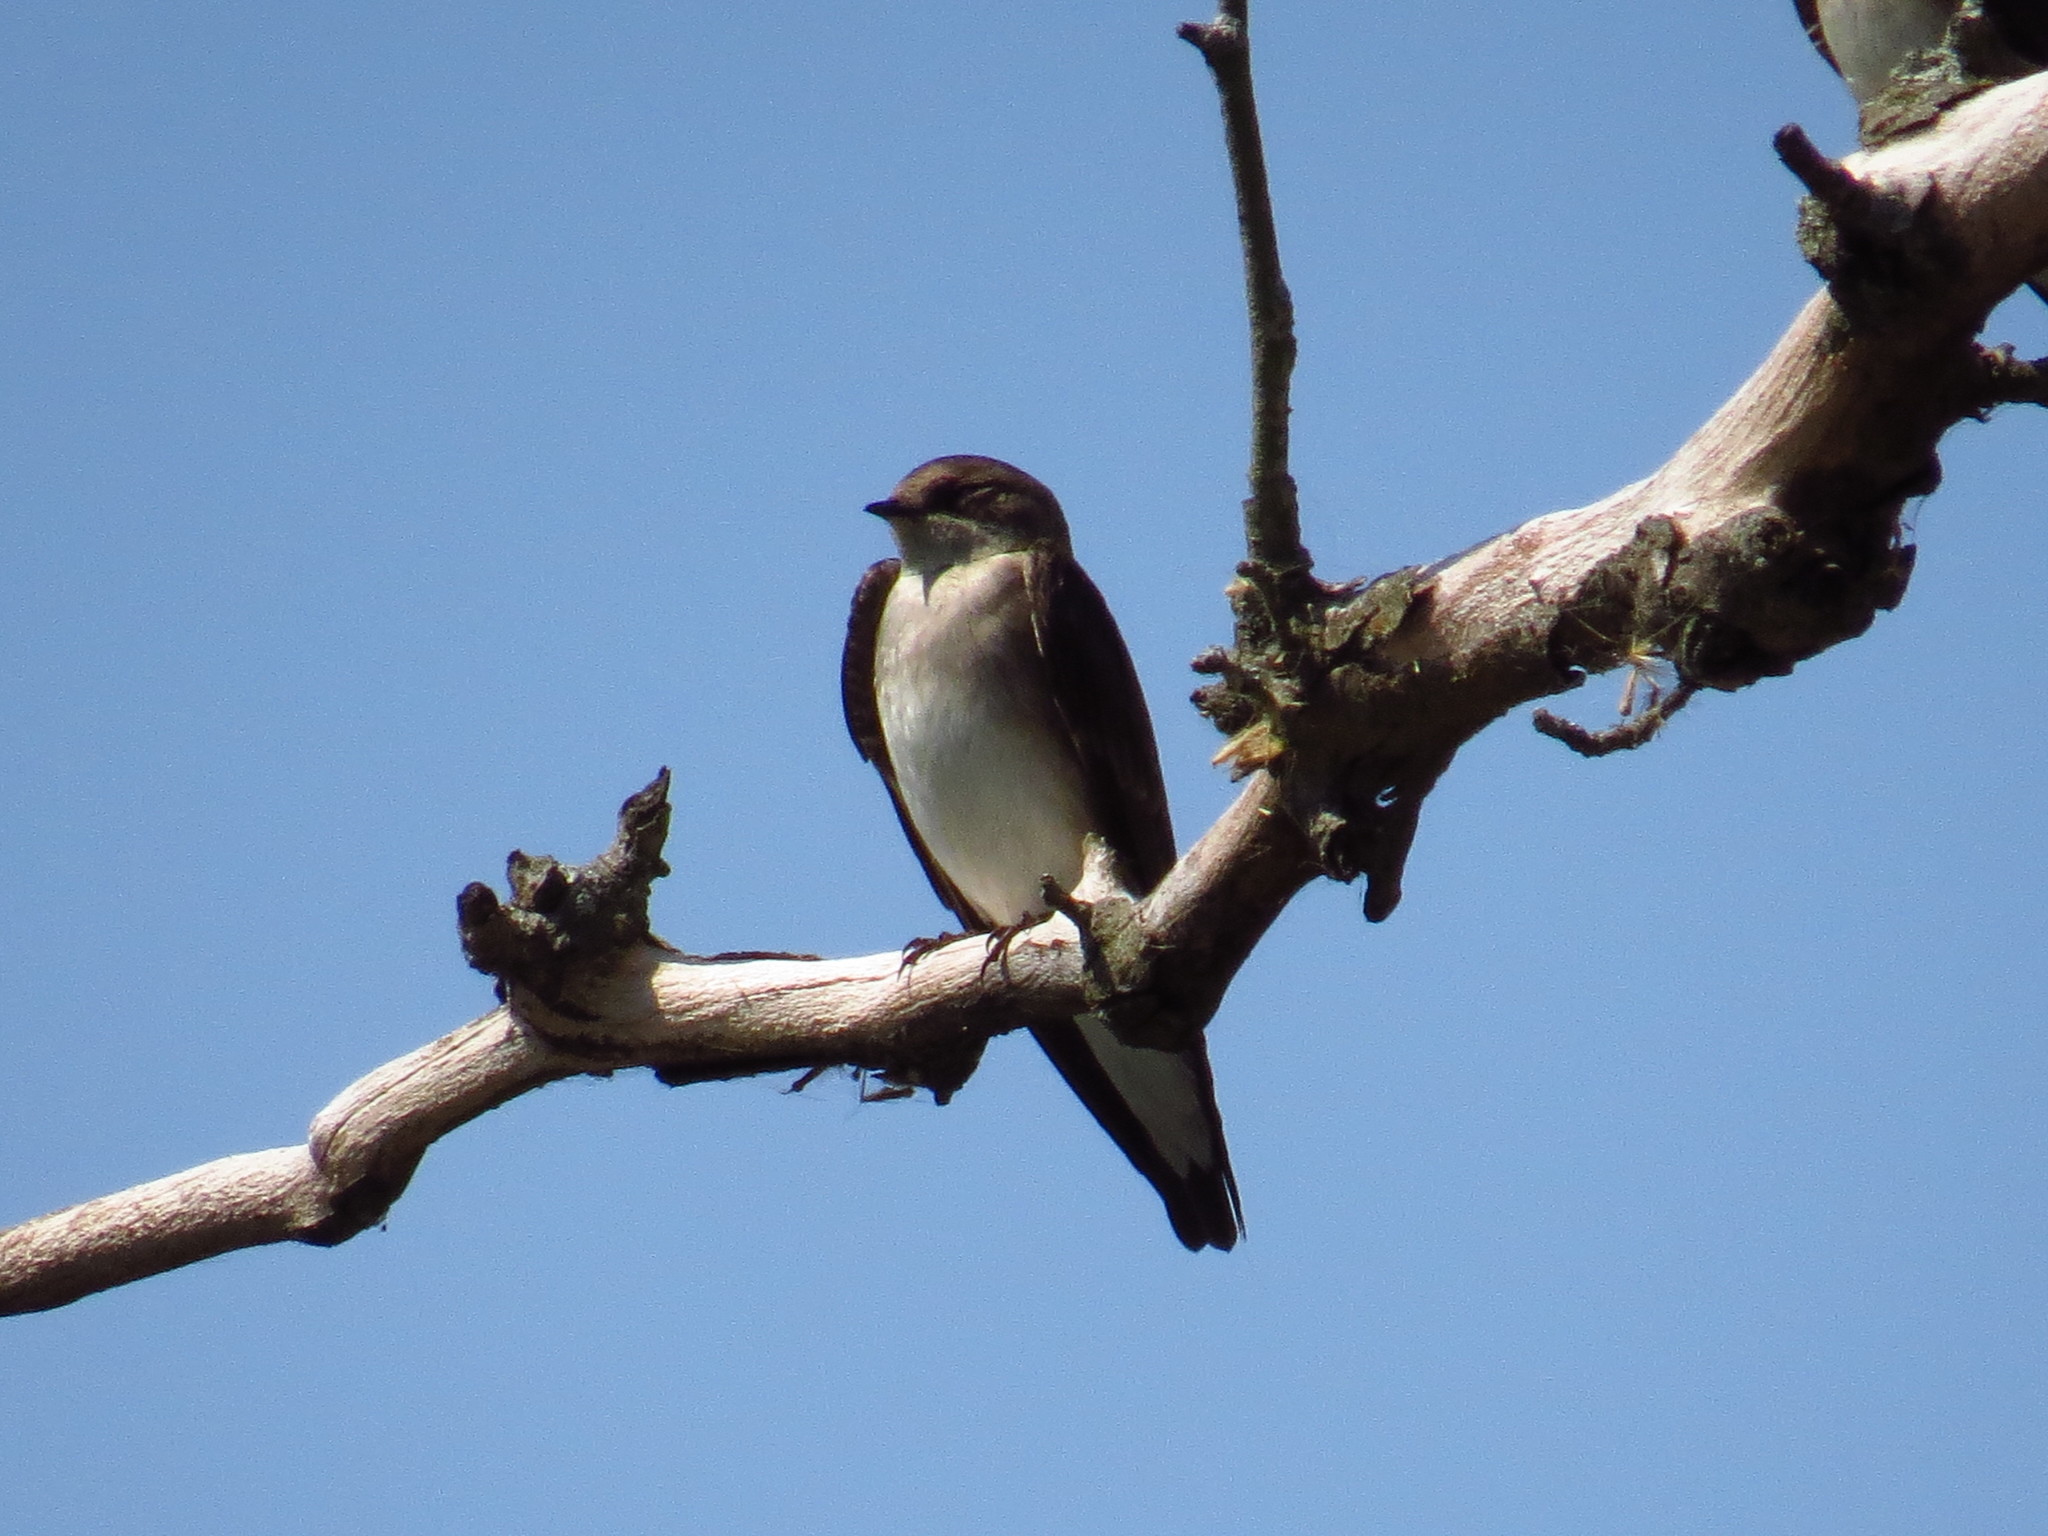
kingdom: Animalia
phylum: Chordata
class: Aves
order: Passeriformes
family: Hirundinidae
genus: Stelgidopteryx
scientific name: Stelgidopteryx serripennis
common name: Northern rough-winged swallow
